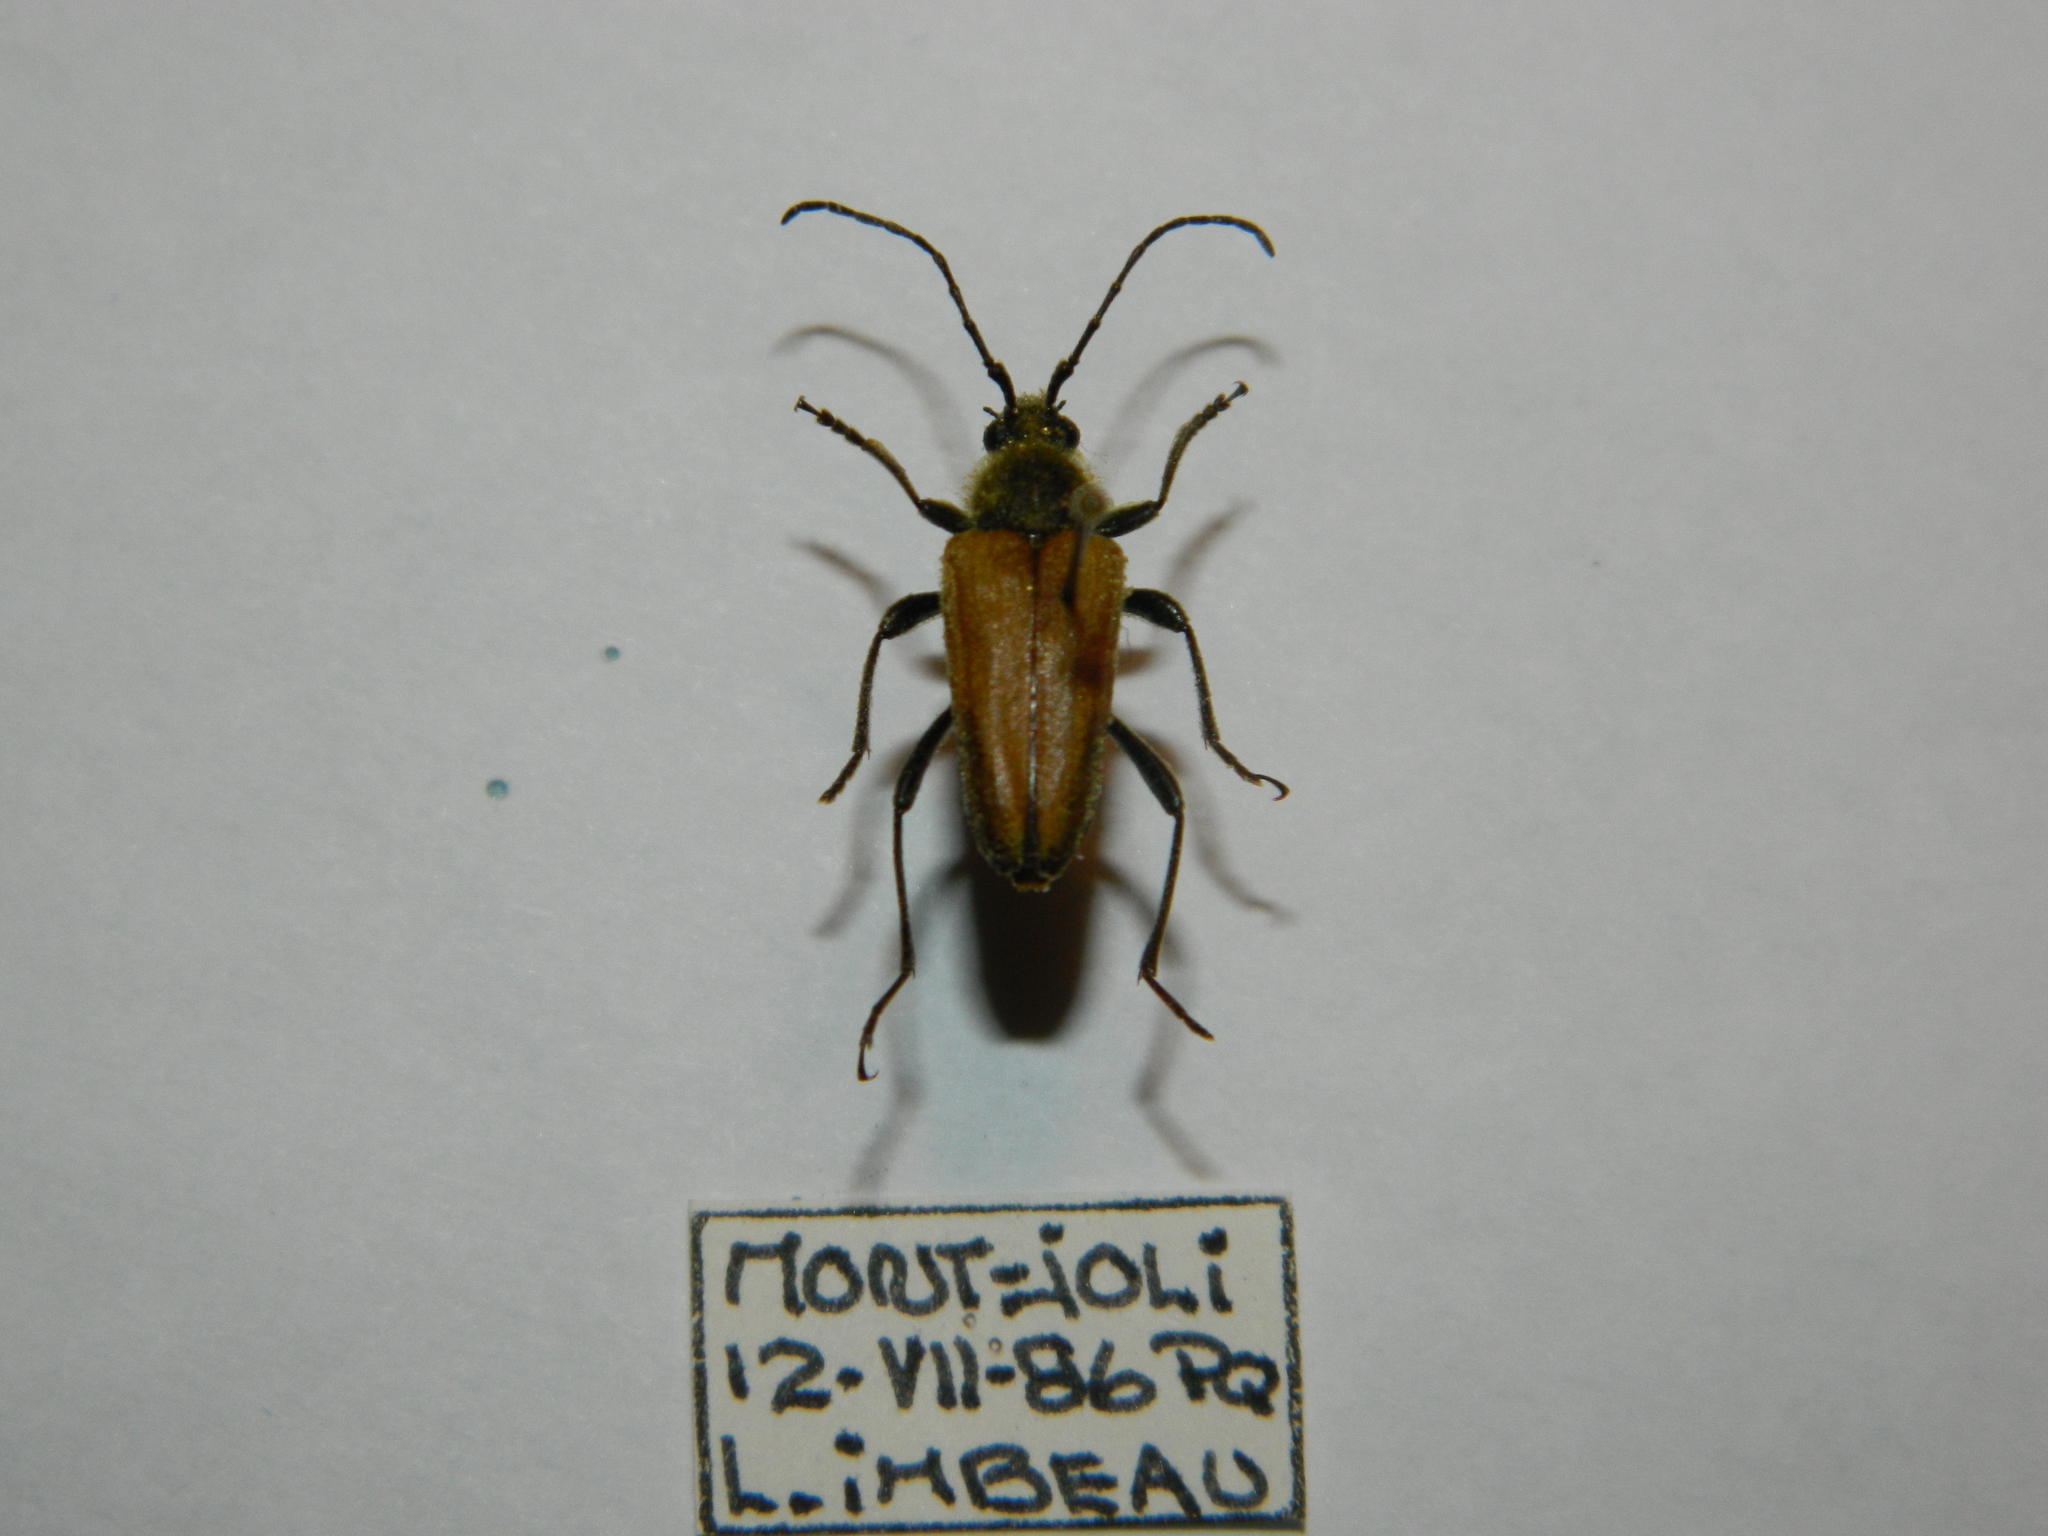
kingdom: Animalia
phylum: Arthropoda
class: Insecta
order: Coleoptera
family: Cerambycidae
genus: Cosmosalia
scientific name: Cosmosalia chrysocoma
